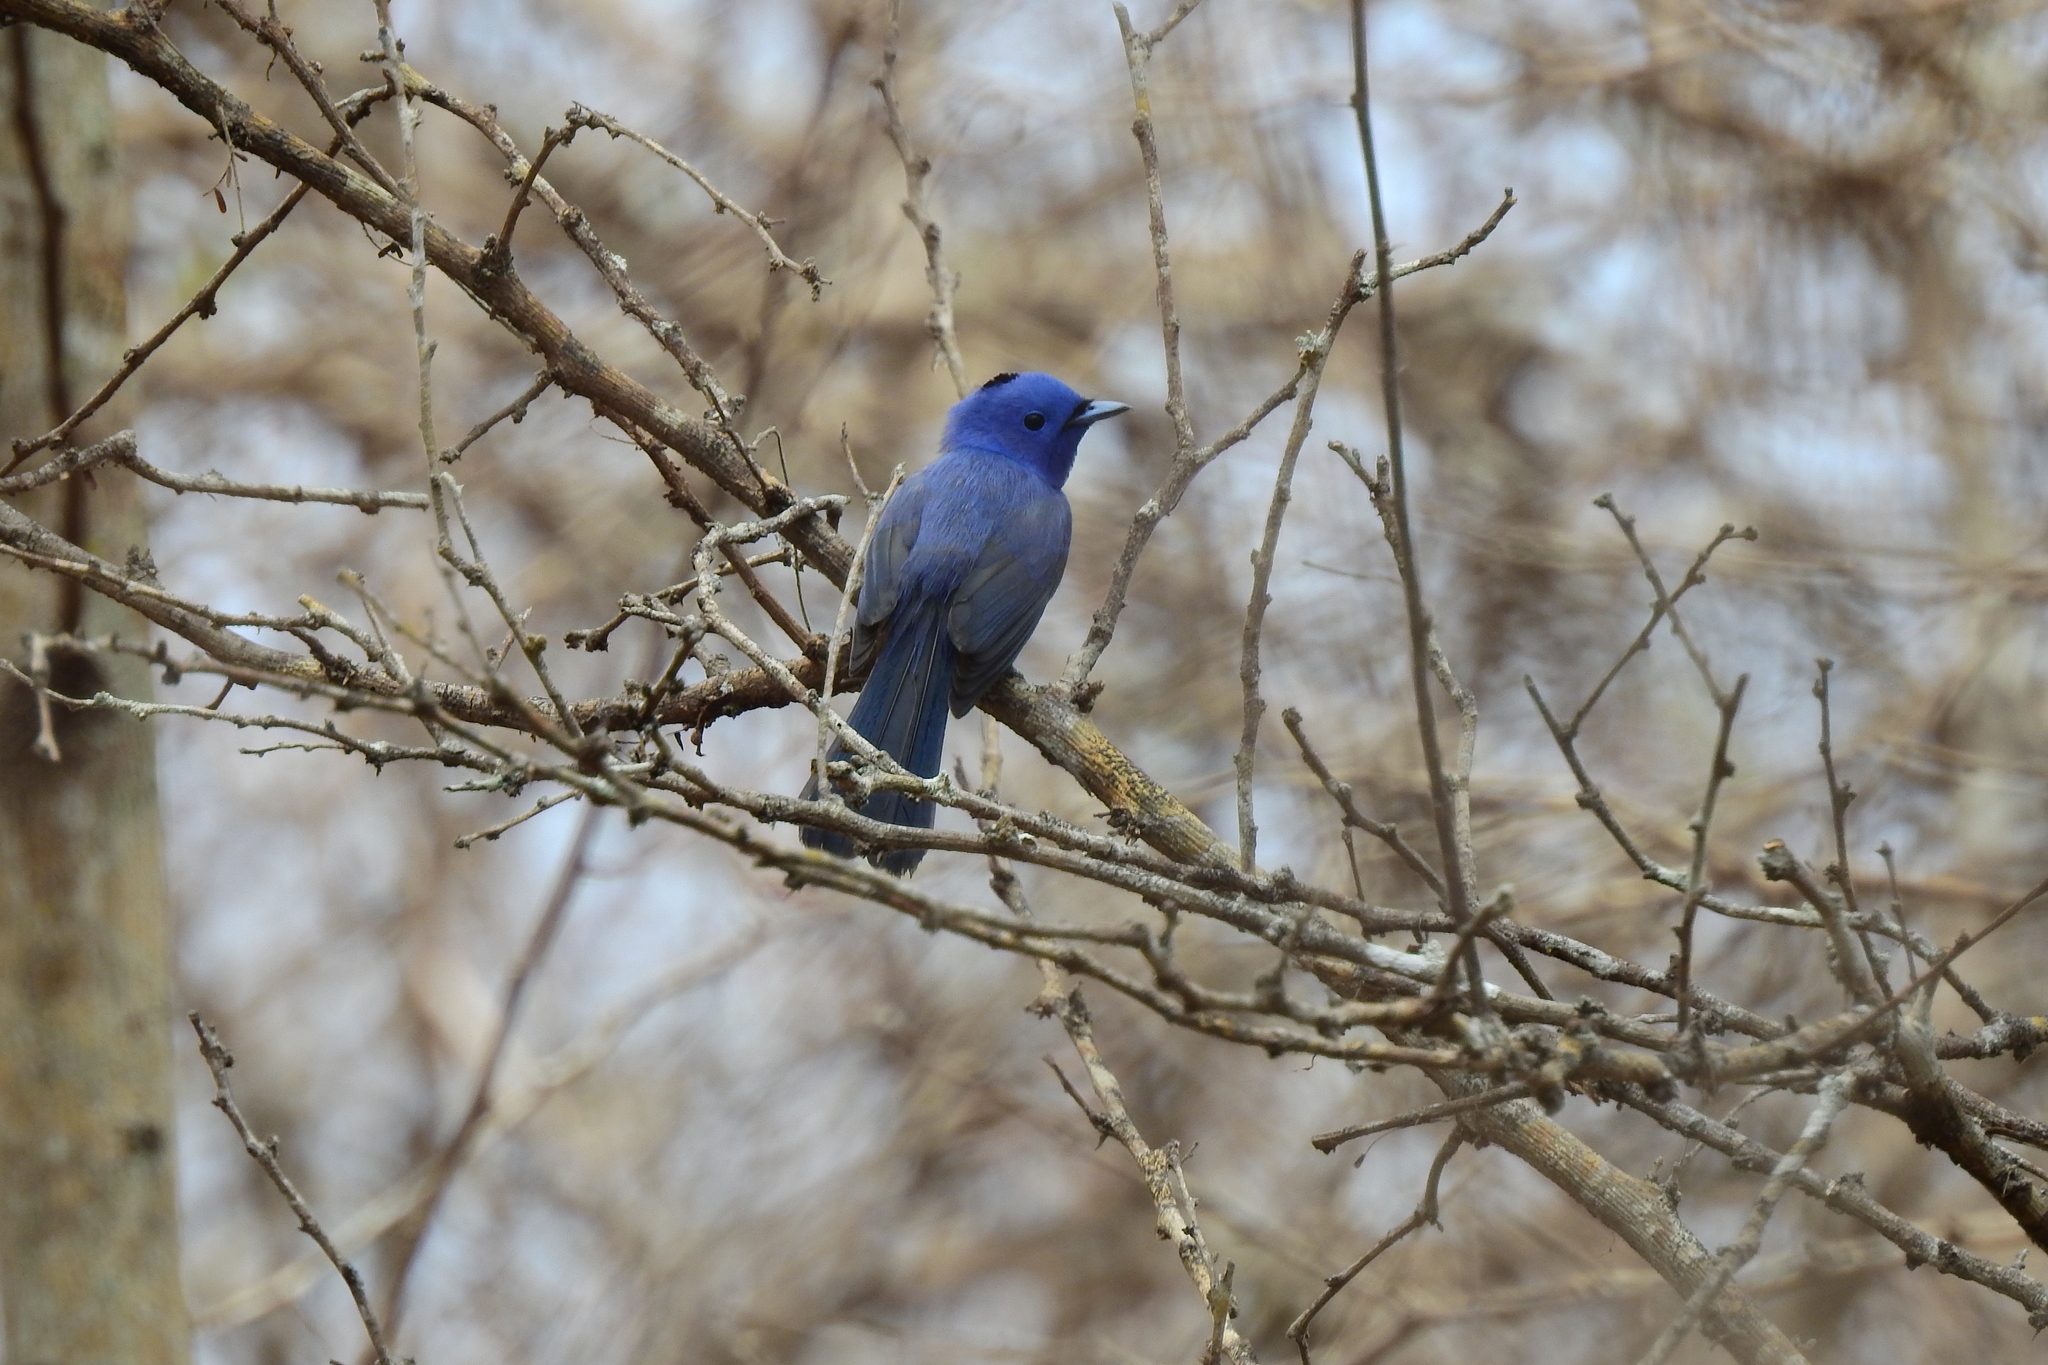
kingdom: Animalia
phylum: Chordata
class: Aves
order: Passeriformes
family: Monarchidae
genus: Hypothymis
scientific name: Hypothymis azurea
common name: Black-naped monarch
